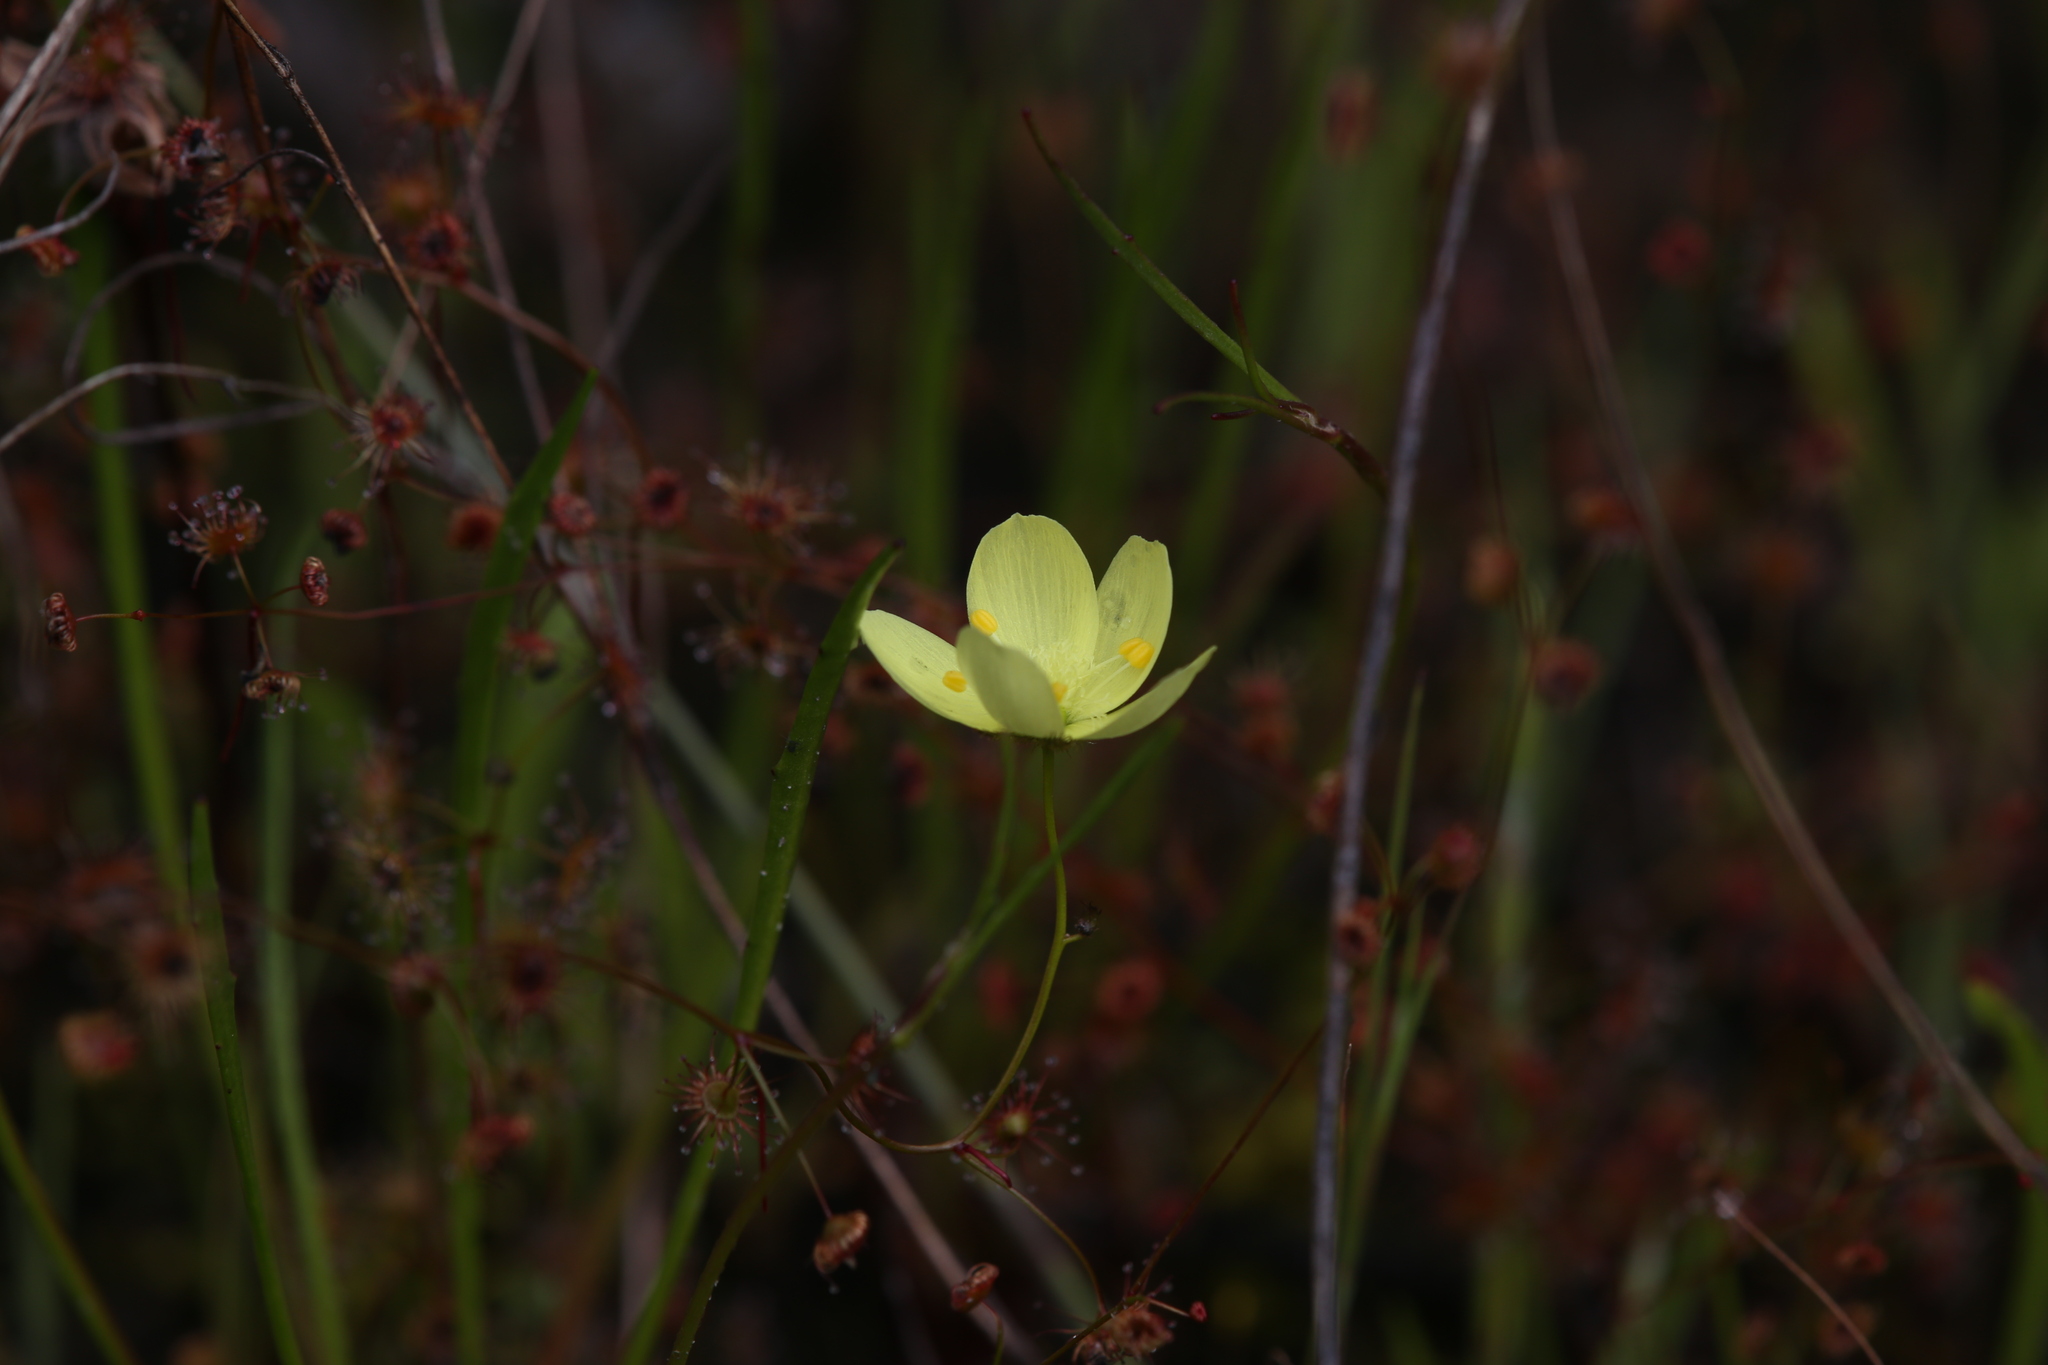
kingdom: Plantae
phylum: Tracheophyta
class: Magnoliopsida
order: Caryophyllales
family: Droseraceae
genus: Drosera
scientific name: Drosera intricata
